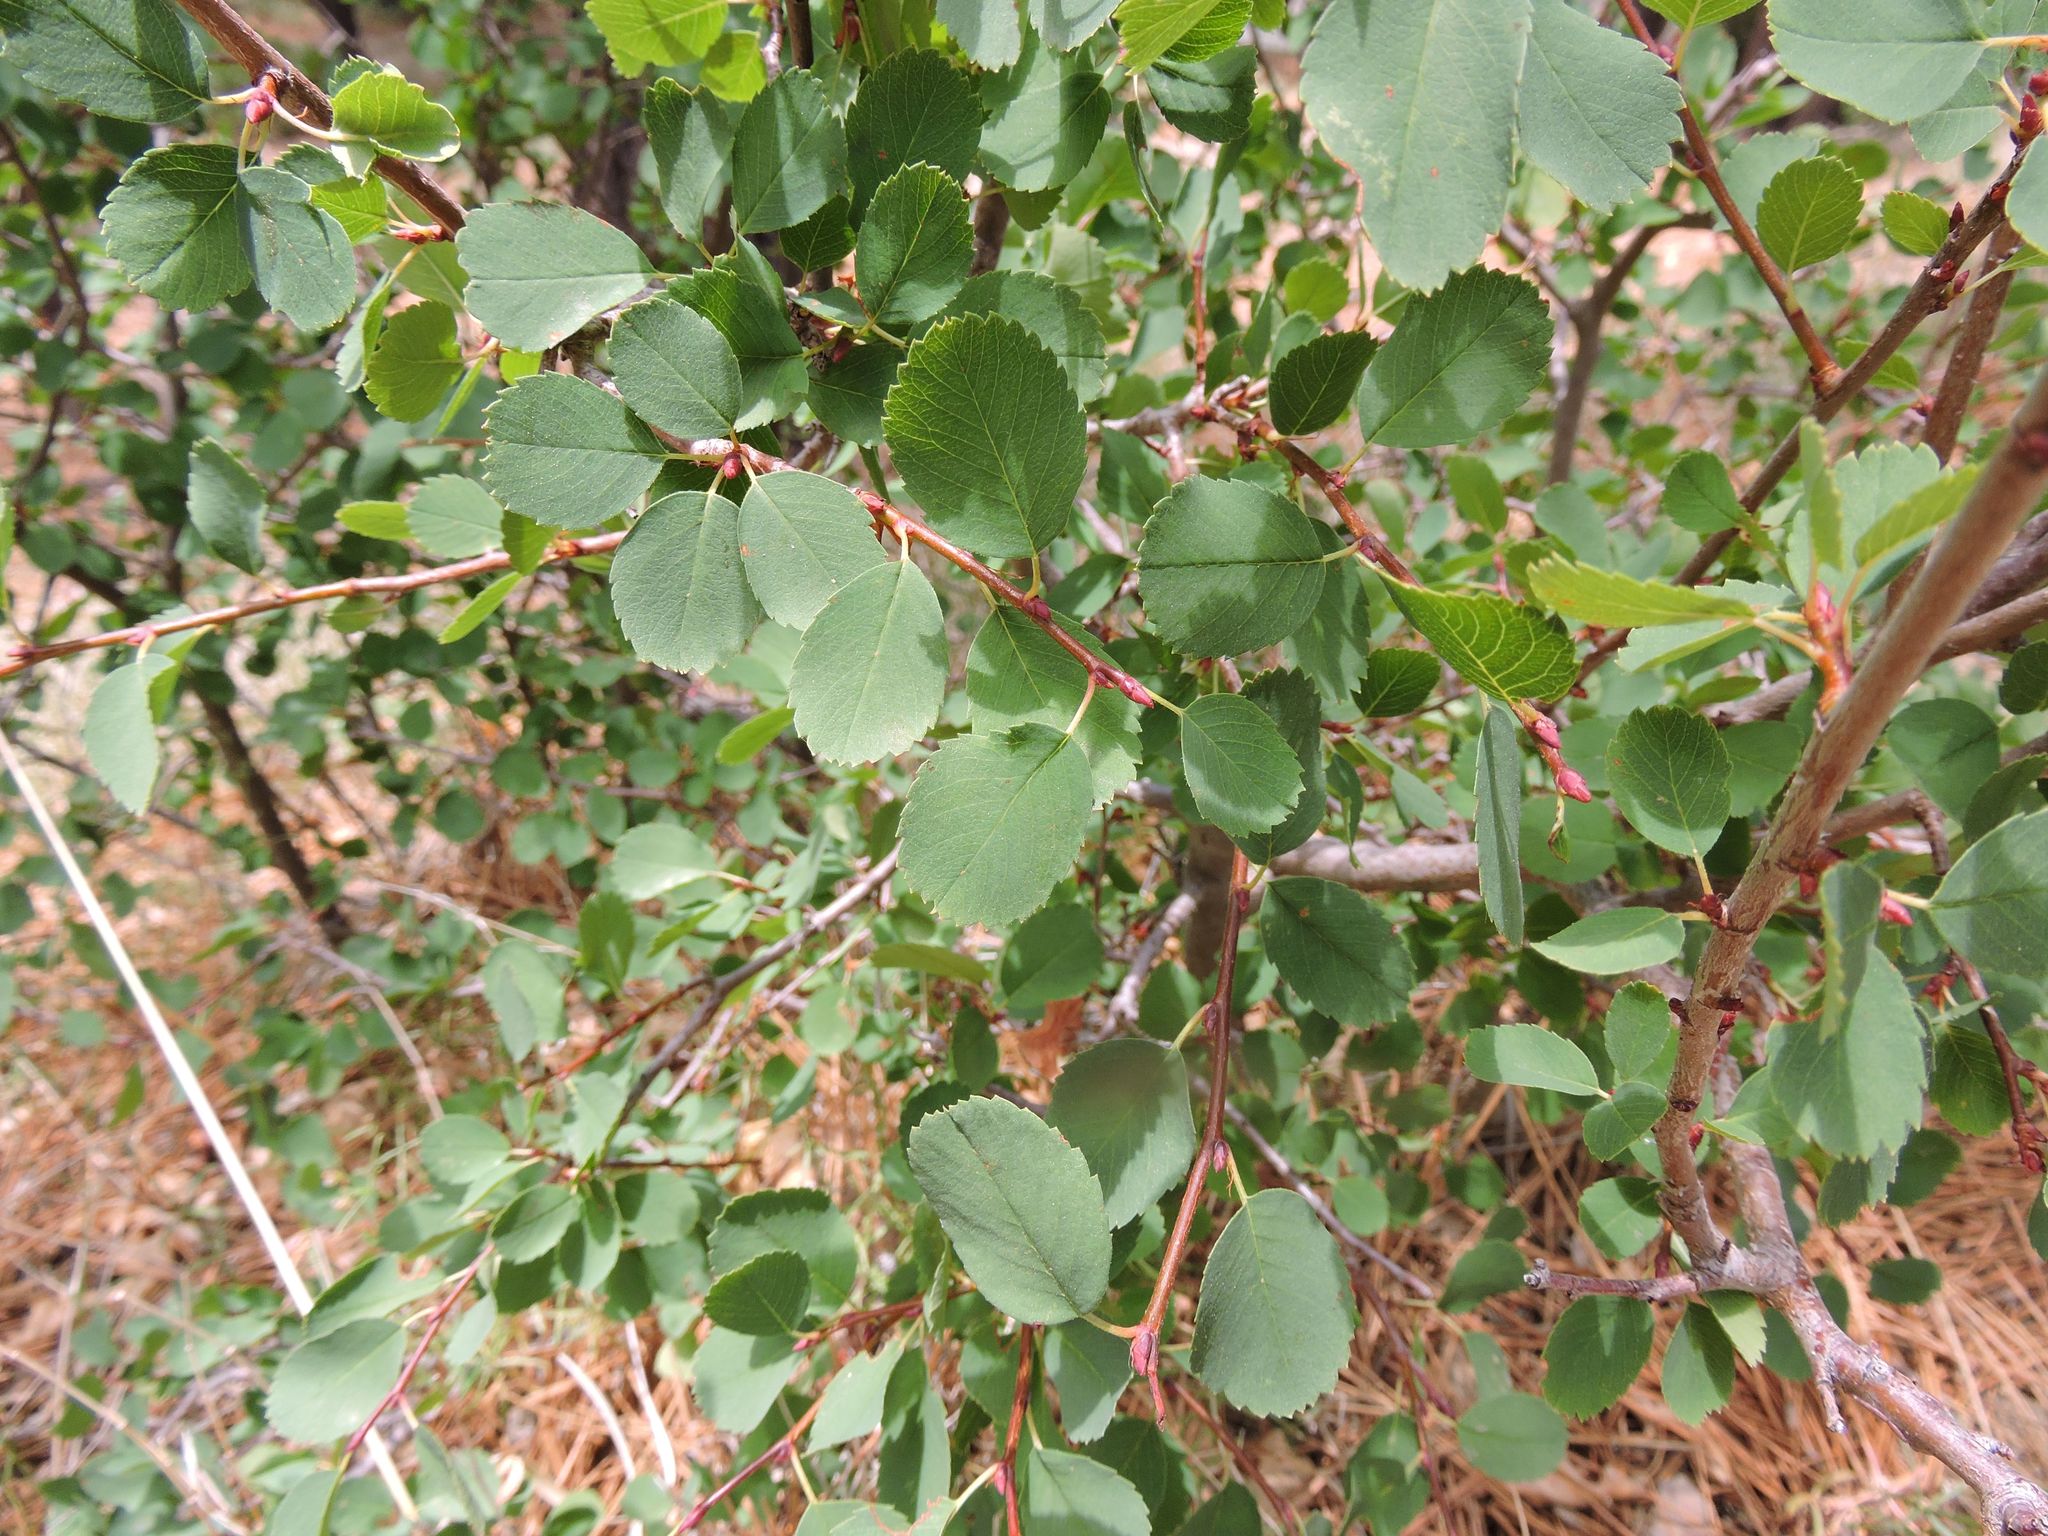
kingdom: Plantae
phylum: Tracheophyta
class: Magnoliopsida
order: Rosales
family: Rosaceae
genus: Amelanchier
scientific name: Amelanchier alnifolia
